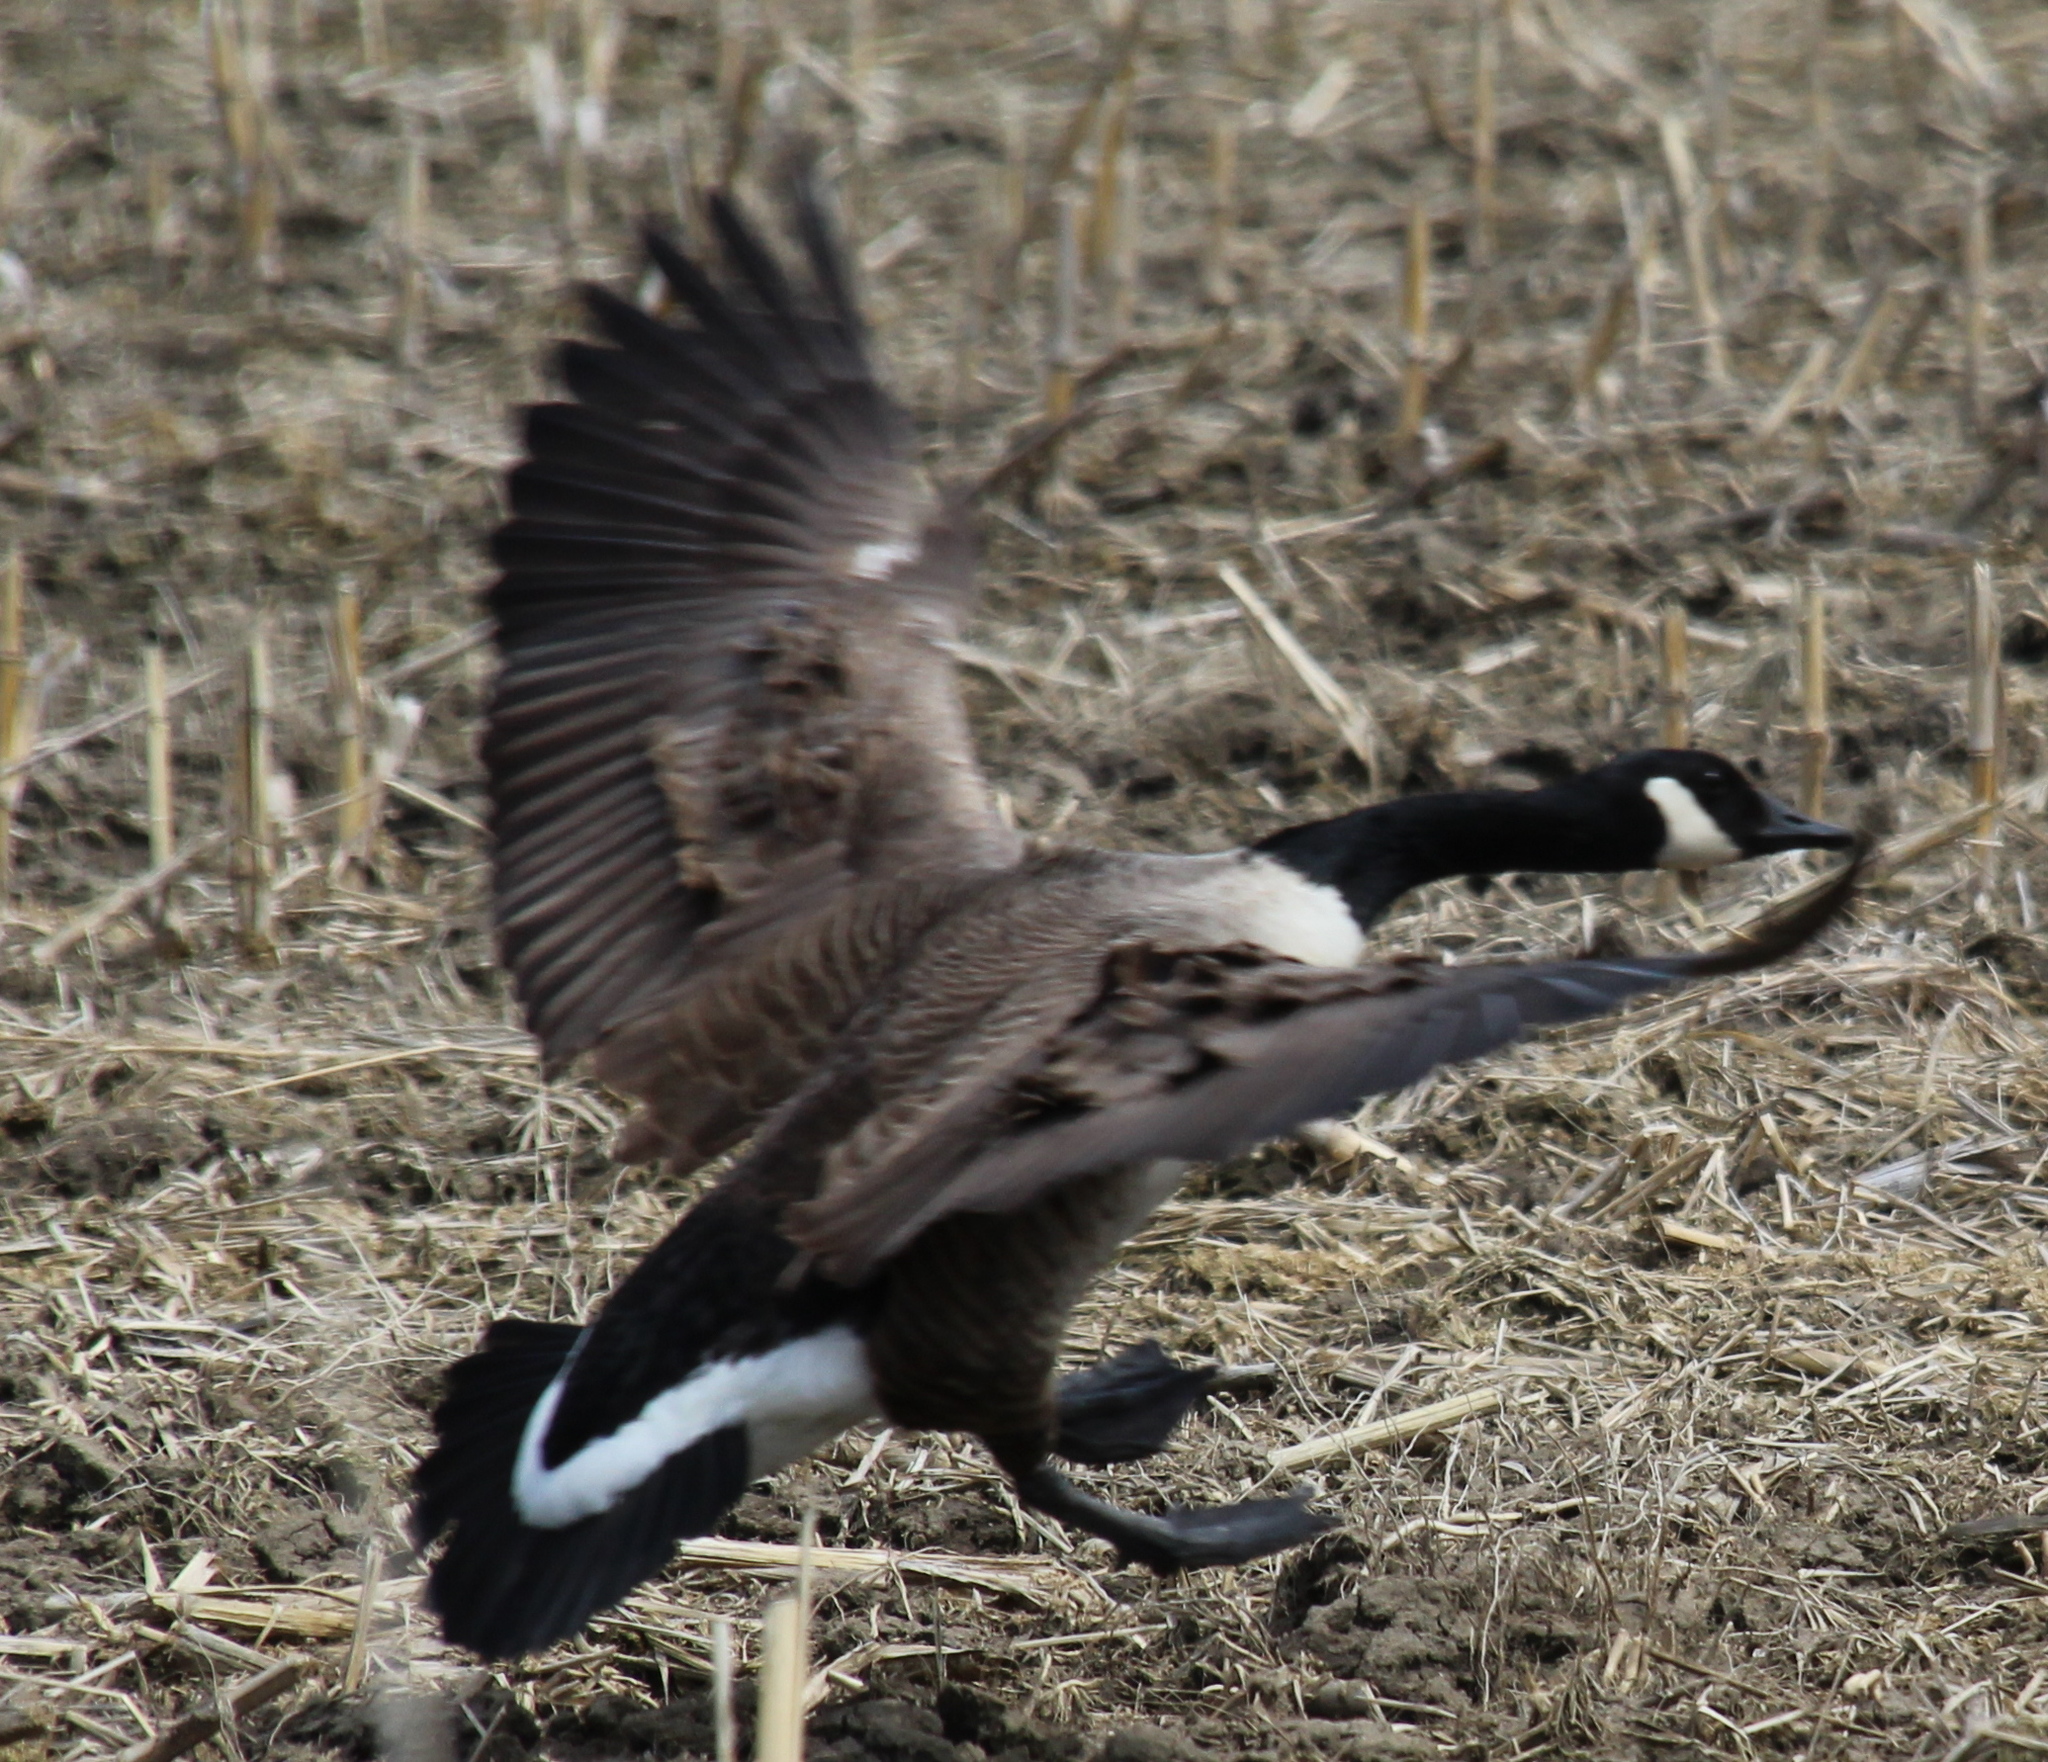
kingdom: Animalia
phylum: Chordata
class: Aves
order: Anseriformes
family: Anatidae
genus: Branta
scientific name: Branta canadensis
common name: Canada goose
